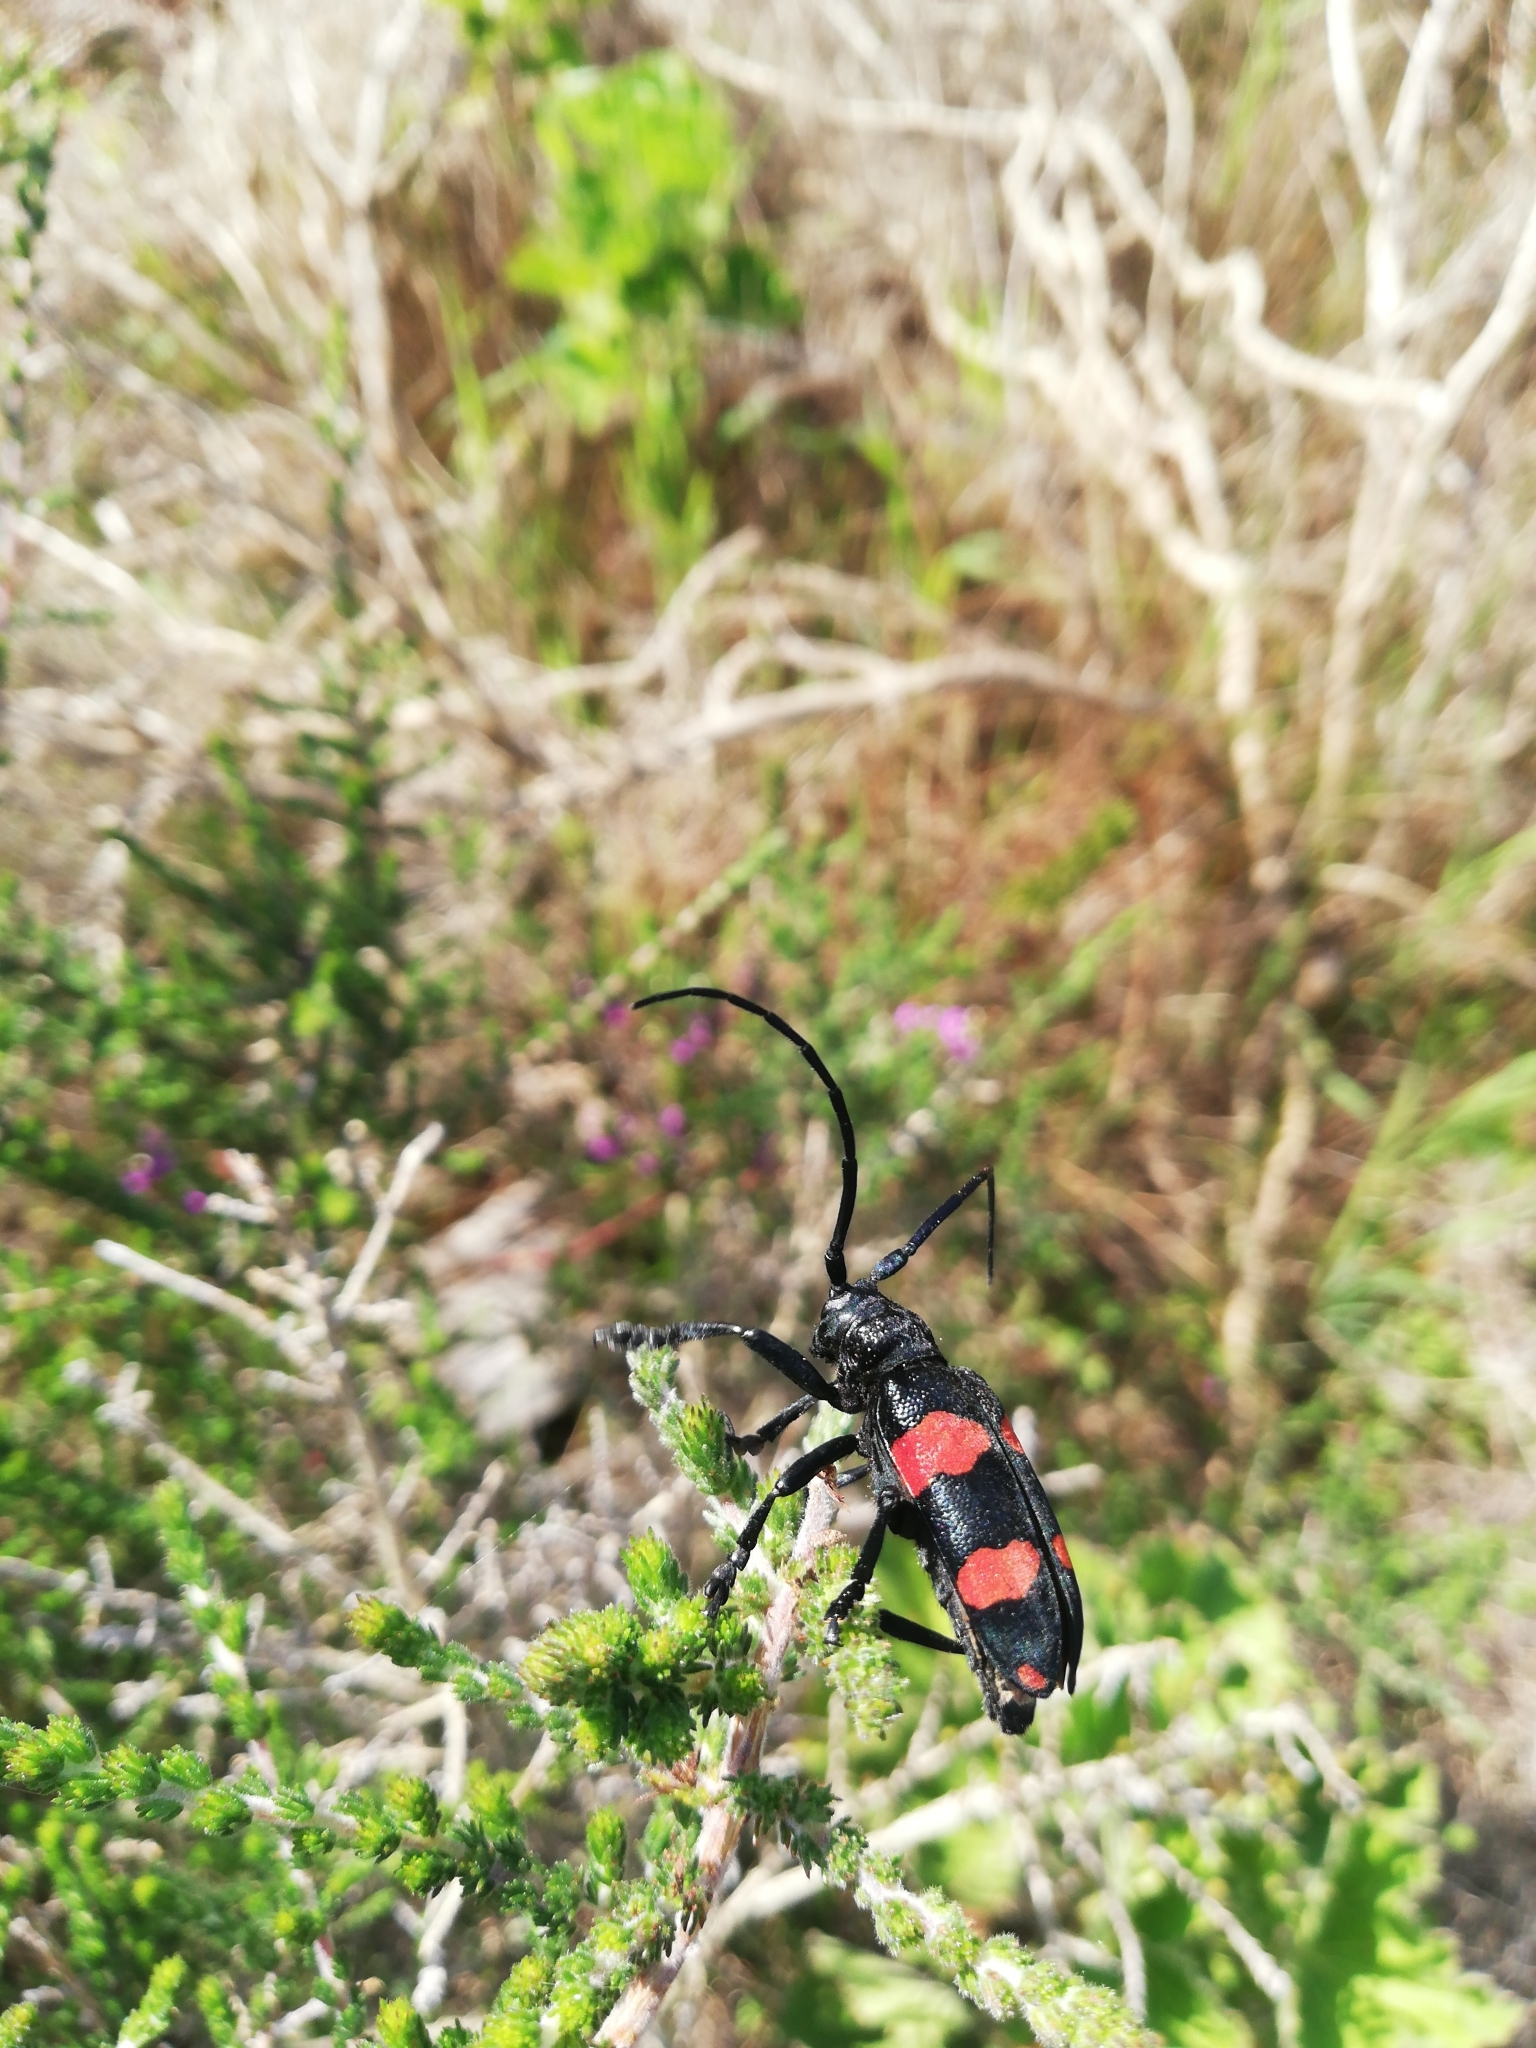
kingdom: Animalia
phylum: Arthropoda
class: Insecta
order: Coleoptera
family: Cerambycidae
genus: Ceroplesis
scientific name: Ceroplesis aethiops
